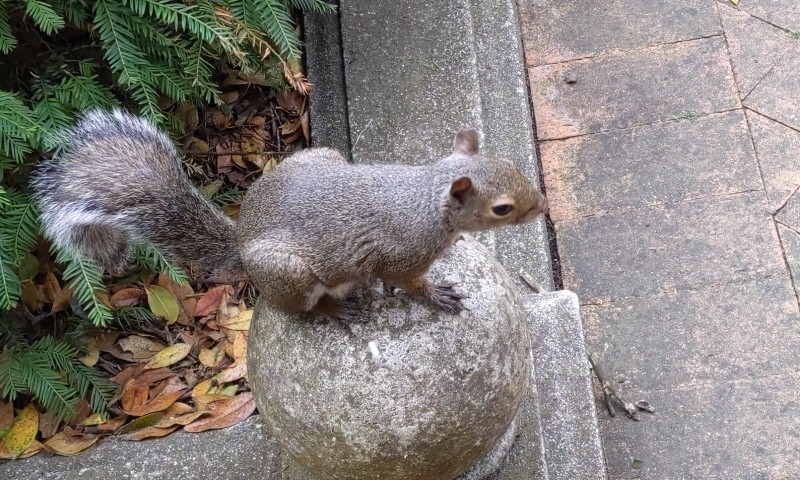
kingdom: Animalia
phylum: Chordata
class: Mammalia
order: Rodentia
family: Sciuridae
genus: Sciurus
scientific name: Sciurus carolinensis
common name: Eastern gray squirrel
